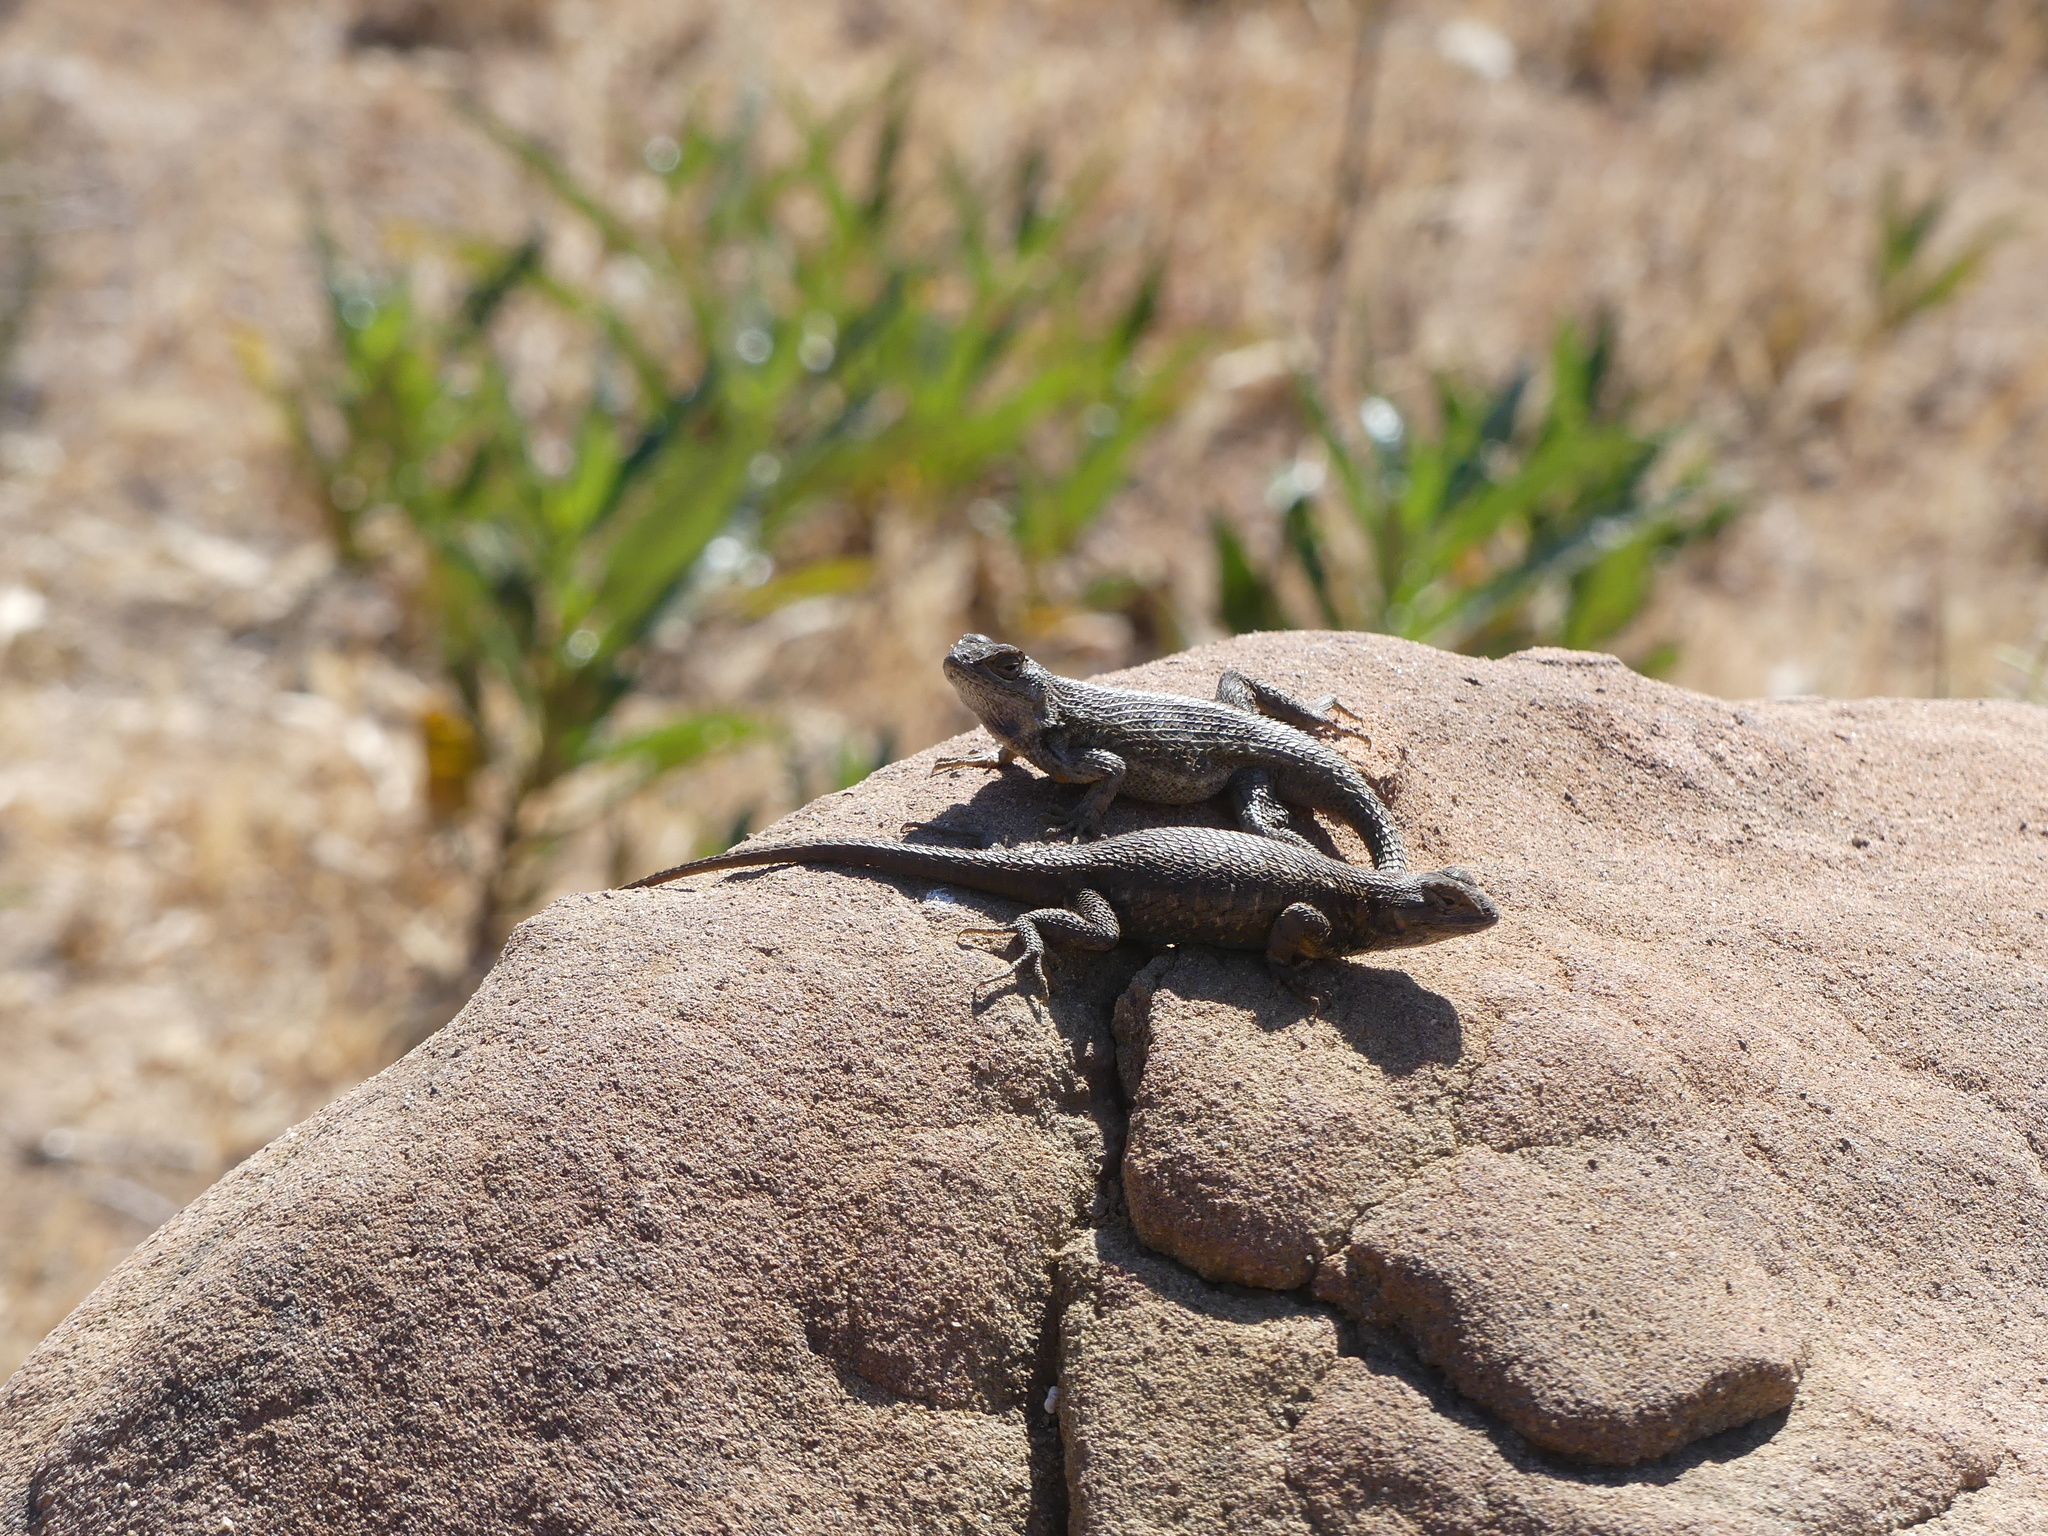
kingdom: Animalia
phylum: Chordata
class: Squamata
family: Phrynosomatidae
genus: Sceloporus
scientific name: Sceloporus occidentalis
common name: Western fence lizard
